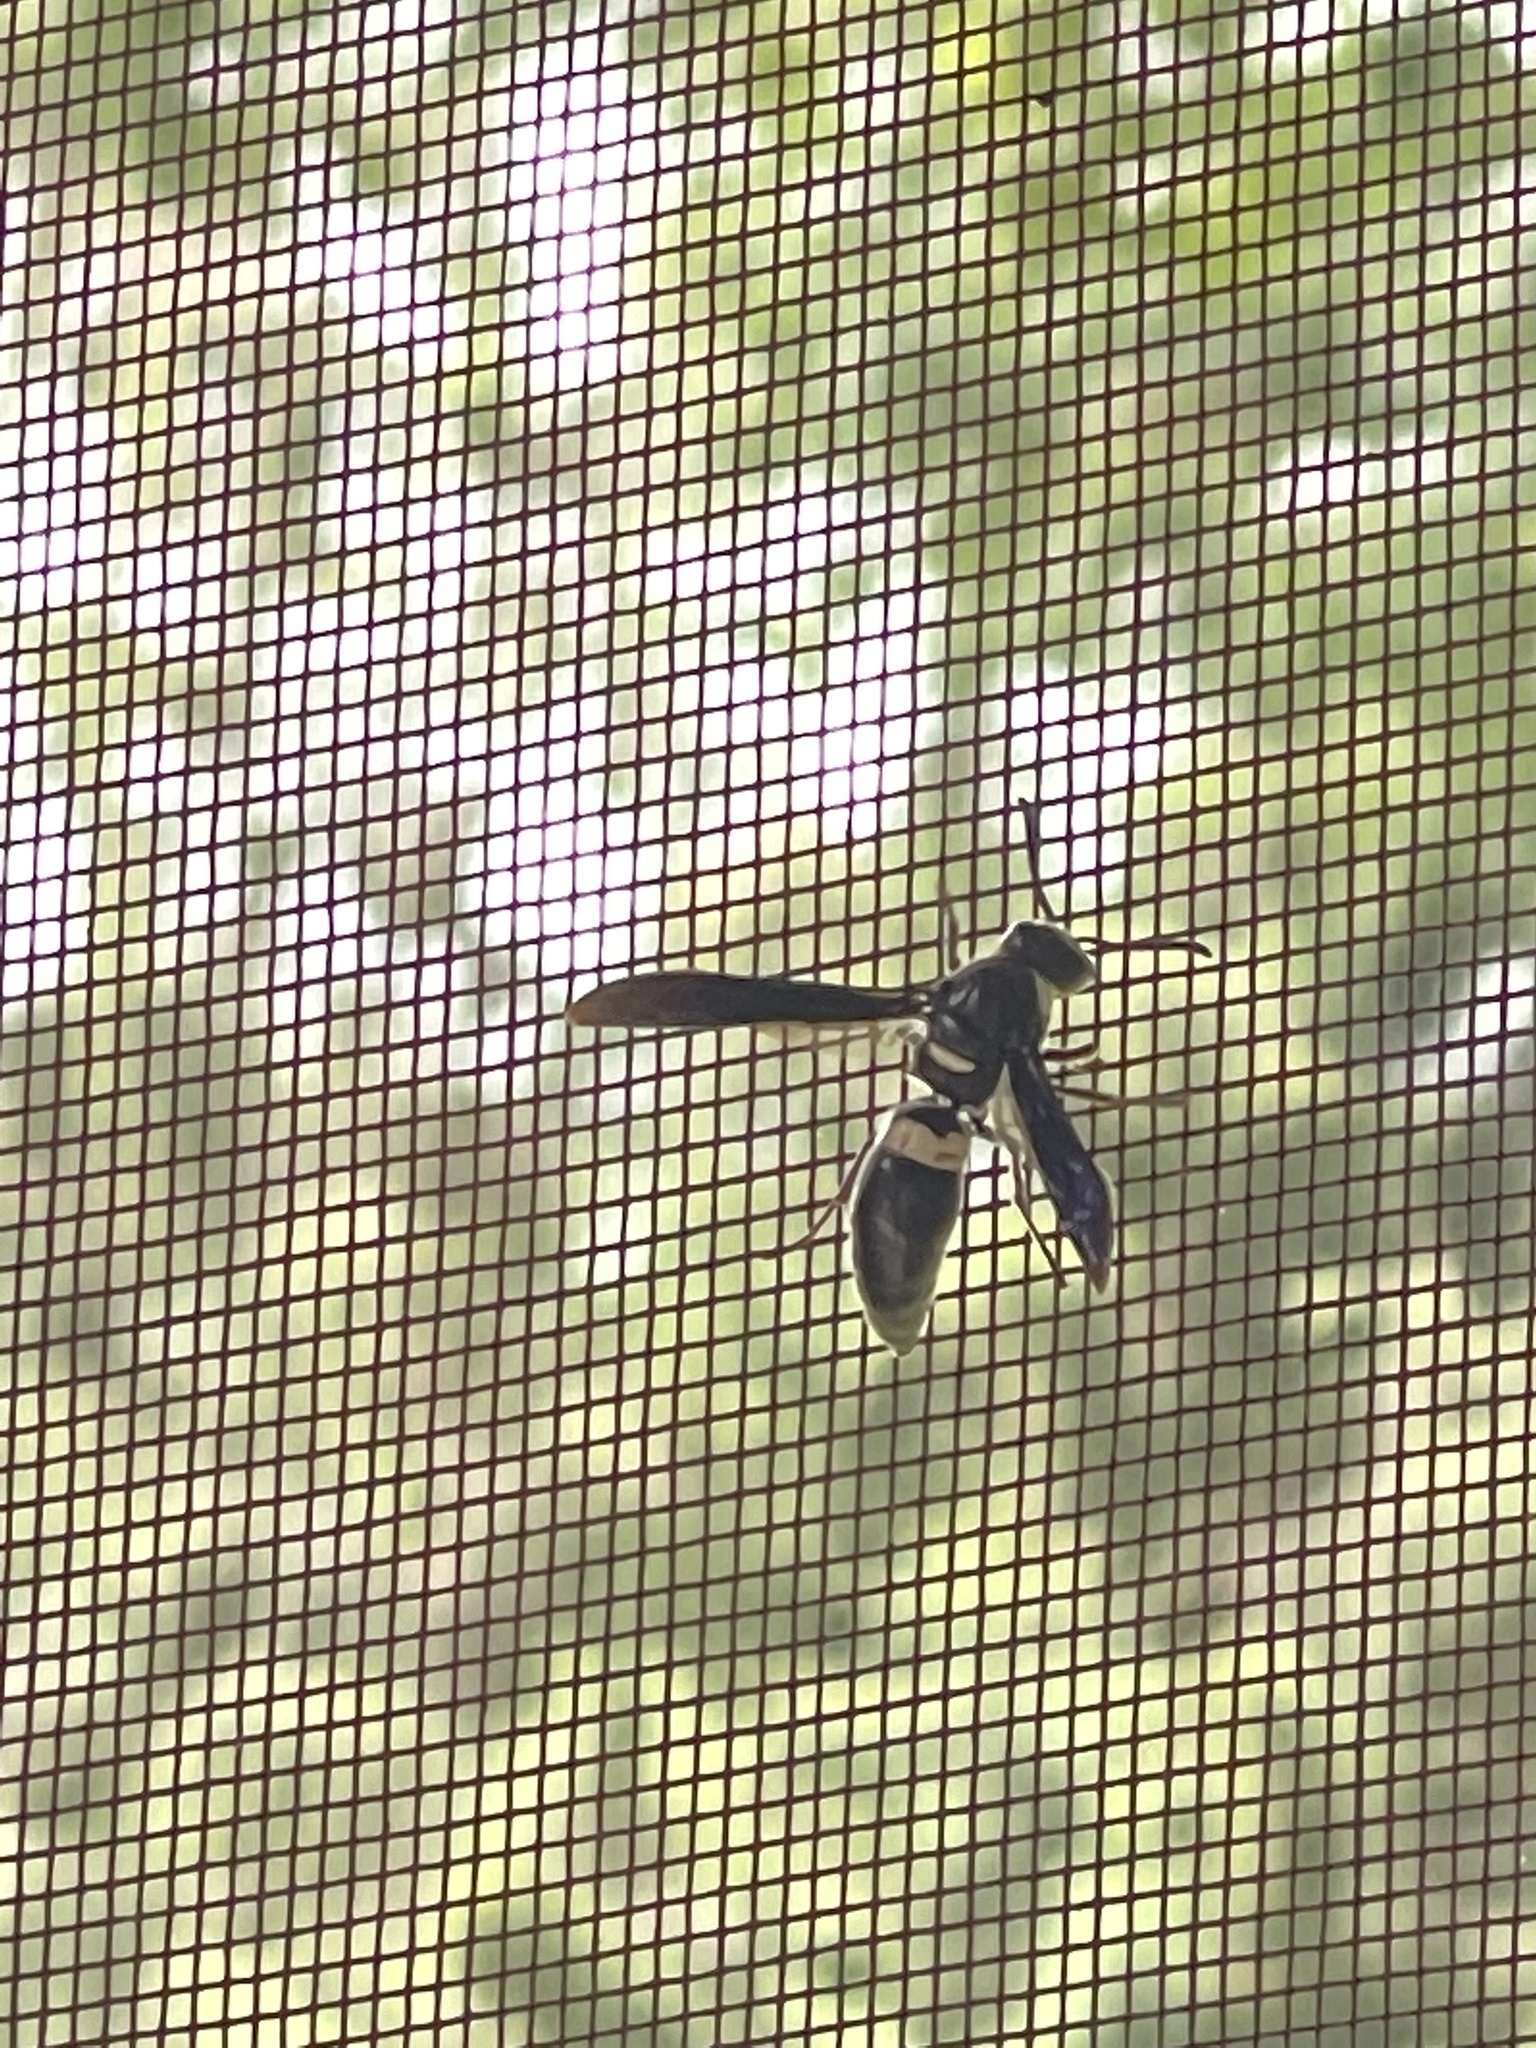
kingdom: Animalia
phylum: Arthropoda
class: Insecta
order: Hymenoptera
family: Eumenidae
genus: Monobia
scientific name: Monobia quadridens
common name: Four-toothed mason wasp
